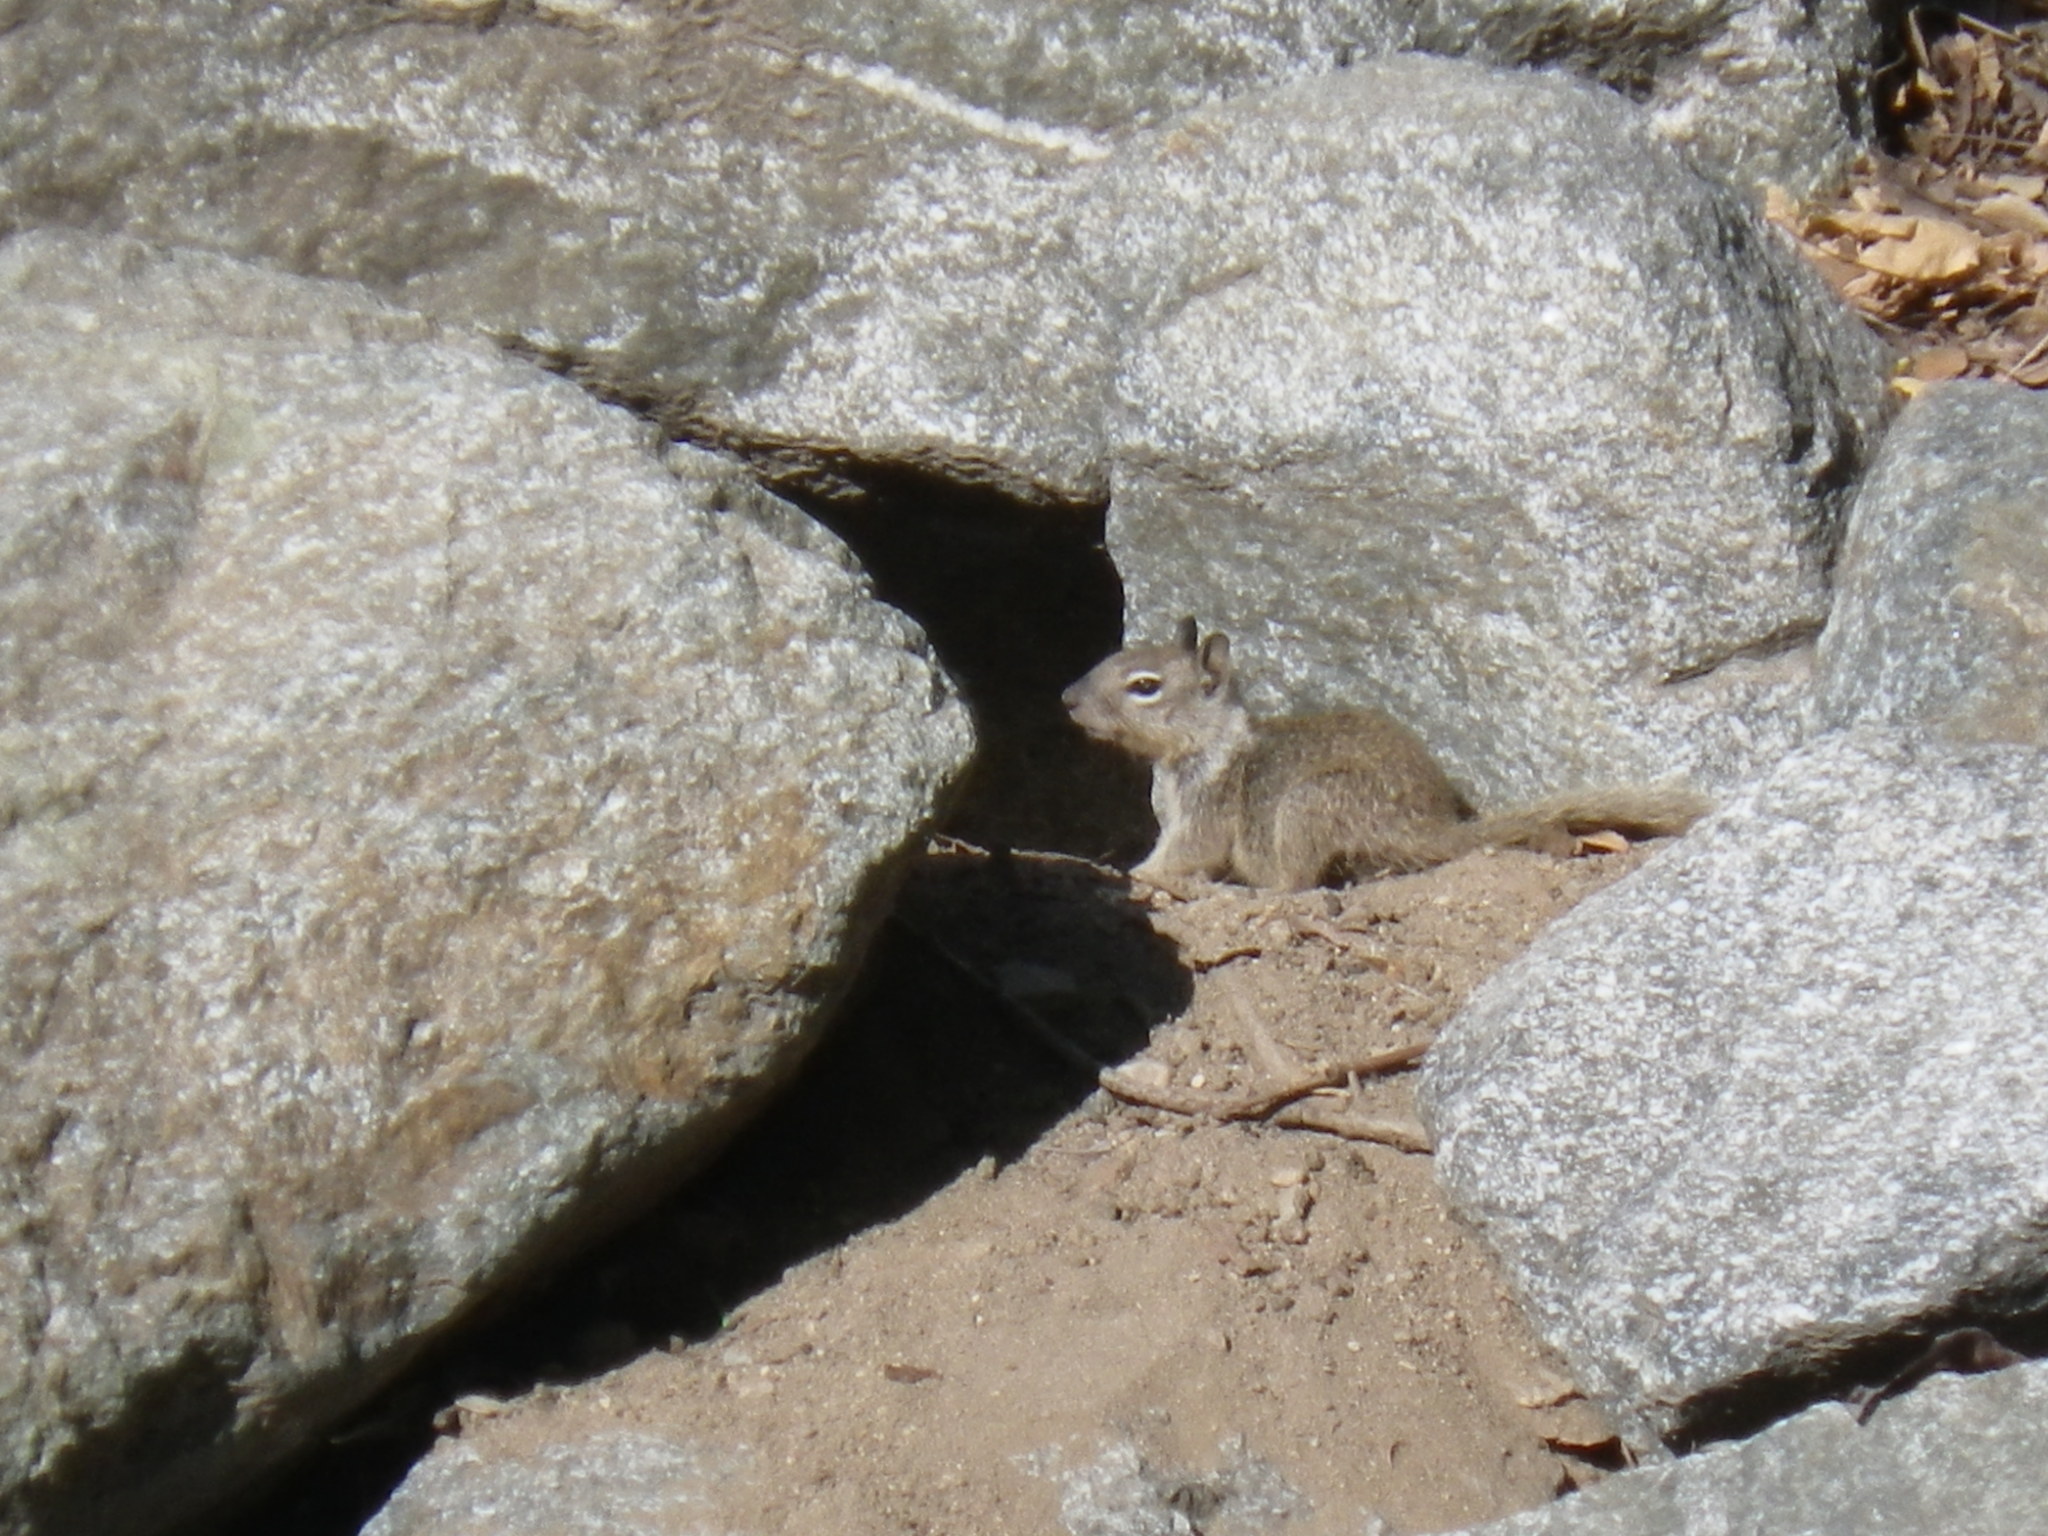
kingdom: Animalia
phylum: Chordata
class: Mammalia
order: Rodentia
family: Sciuridae
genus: Otospermophilus
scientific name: Otospermophilus beecheyi
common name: California ground squirrel
